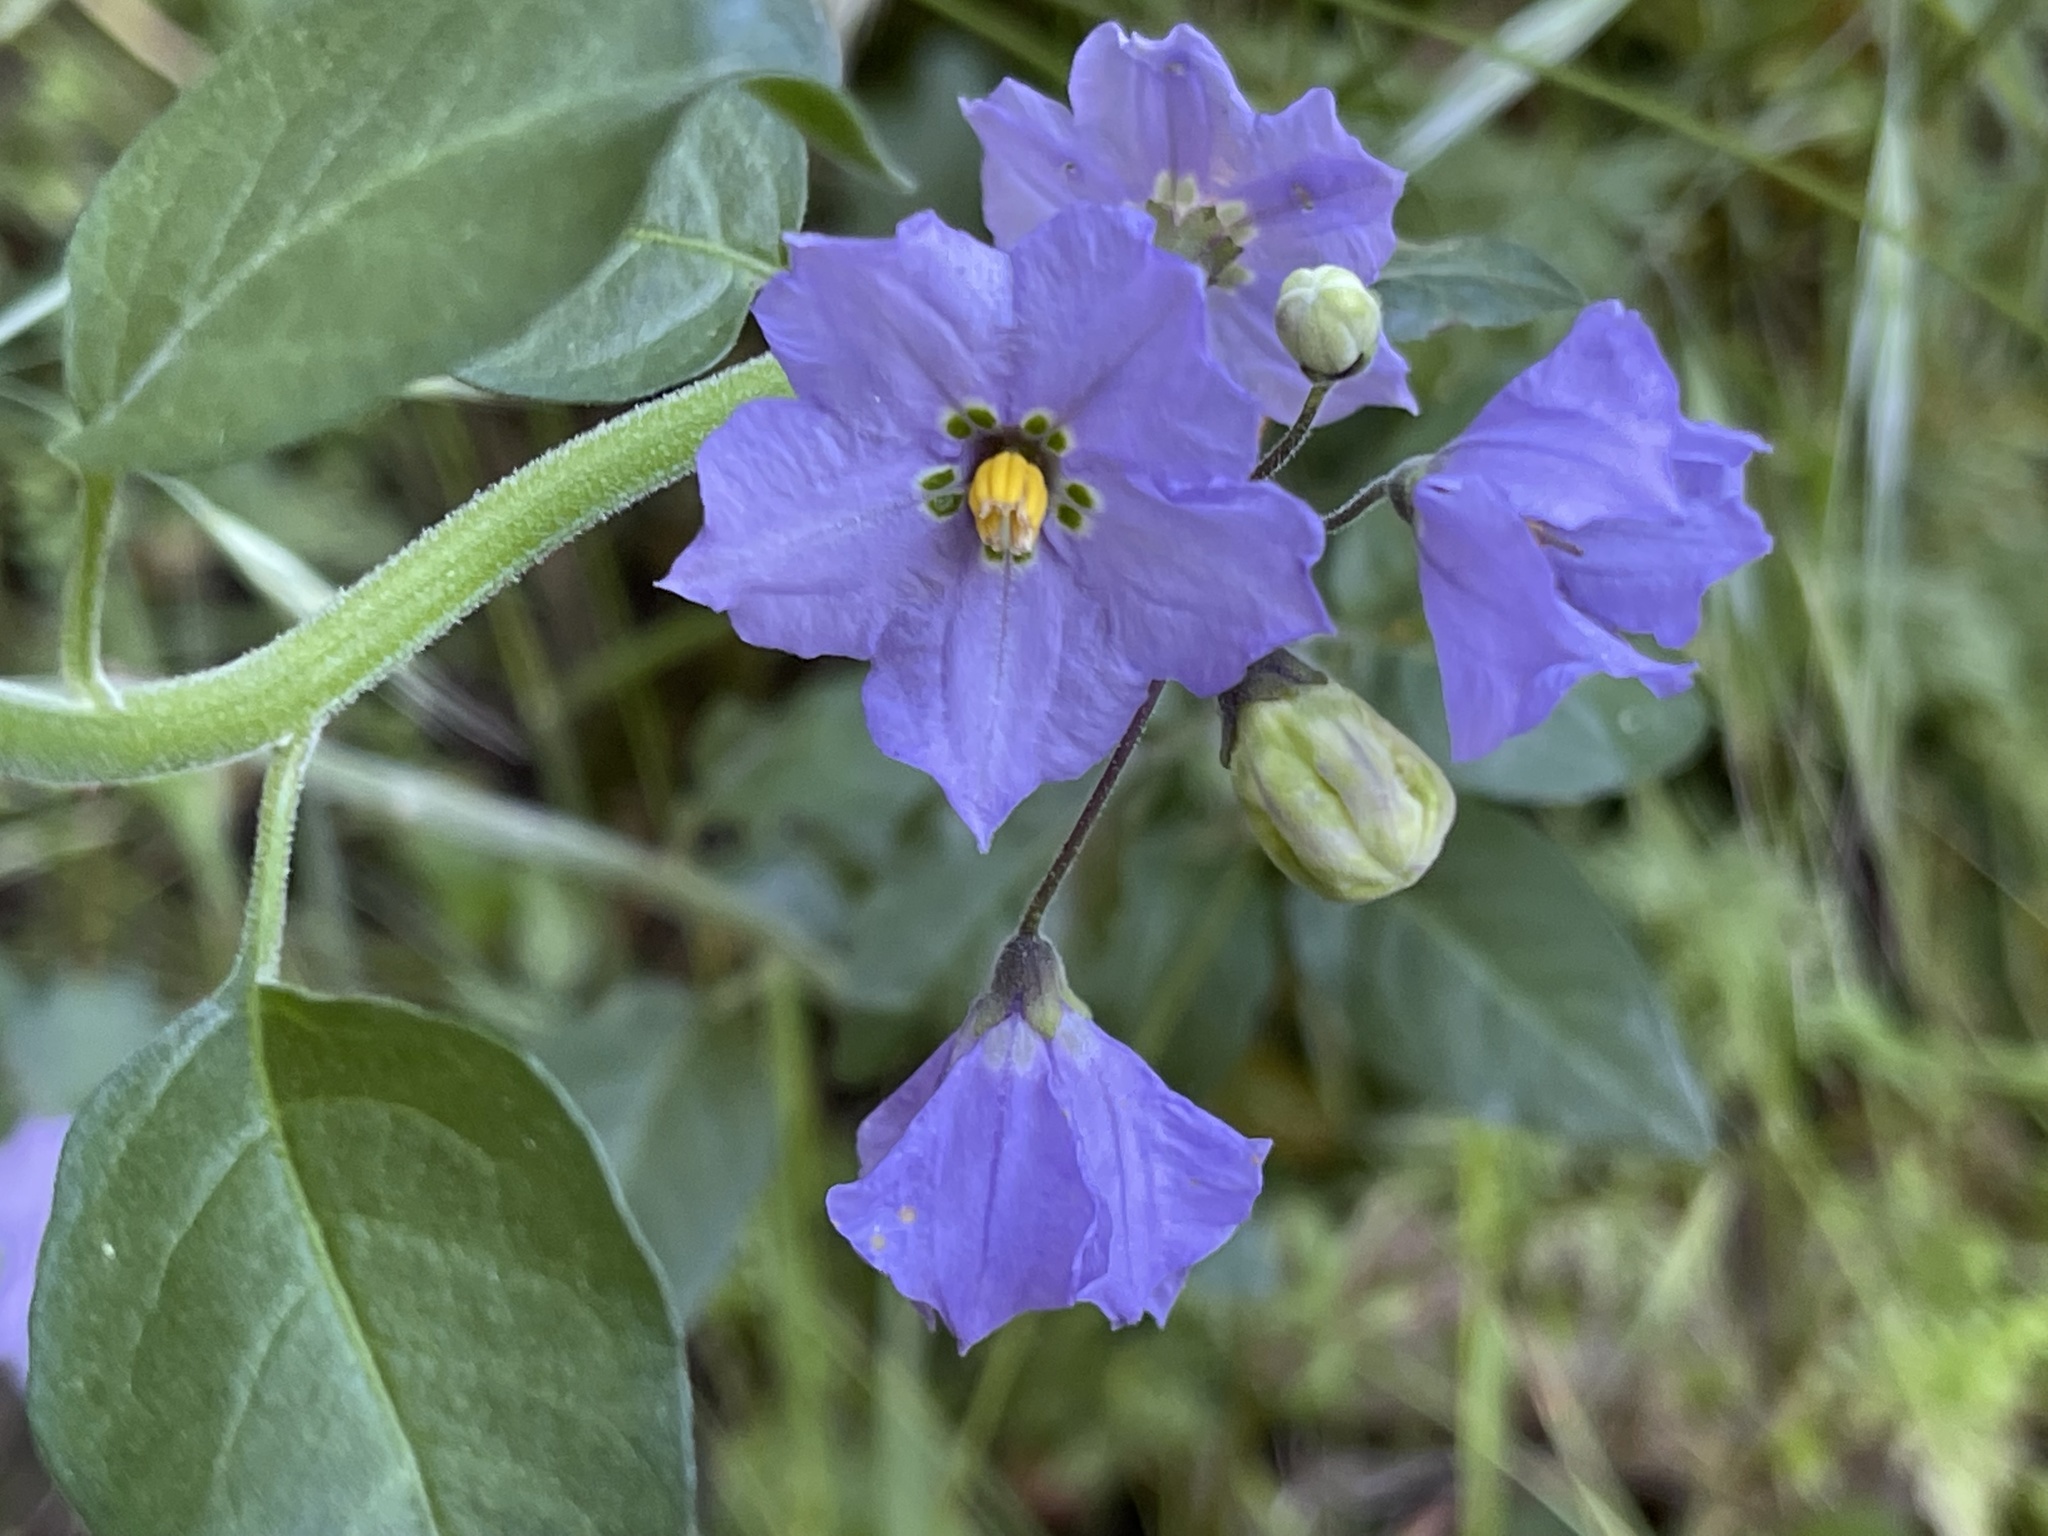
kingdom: Plantae
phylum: Tracheophyta
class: Magnoliopsida
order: Solanales
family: Solanaceae
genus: Solanum
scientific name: Solanum umbelliferum
